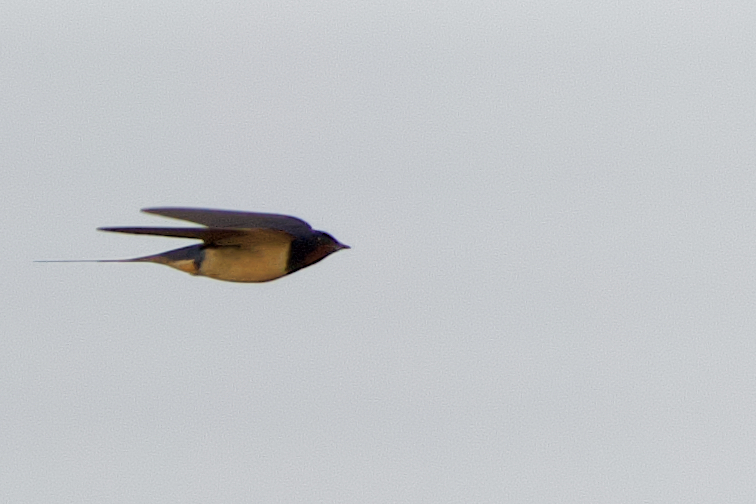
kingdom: Animalia
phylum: Chordata
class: Aves
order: Passeriformes
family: Hirundinidae
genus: Hirundo
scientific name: Hirundo rustica
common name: Barn swallow
